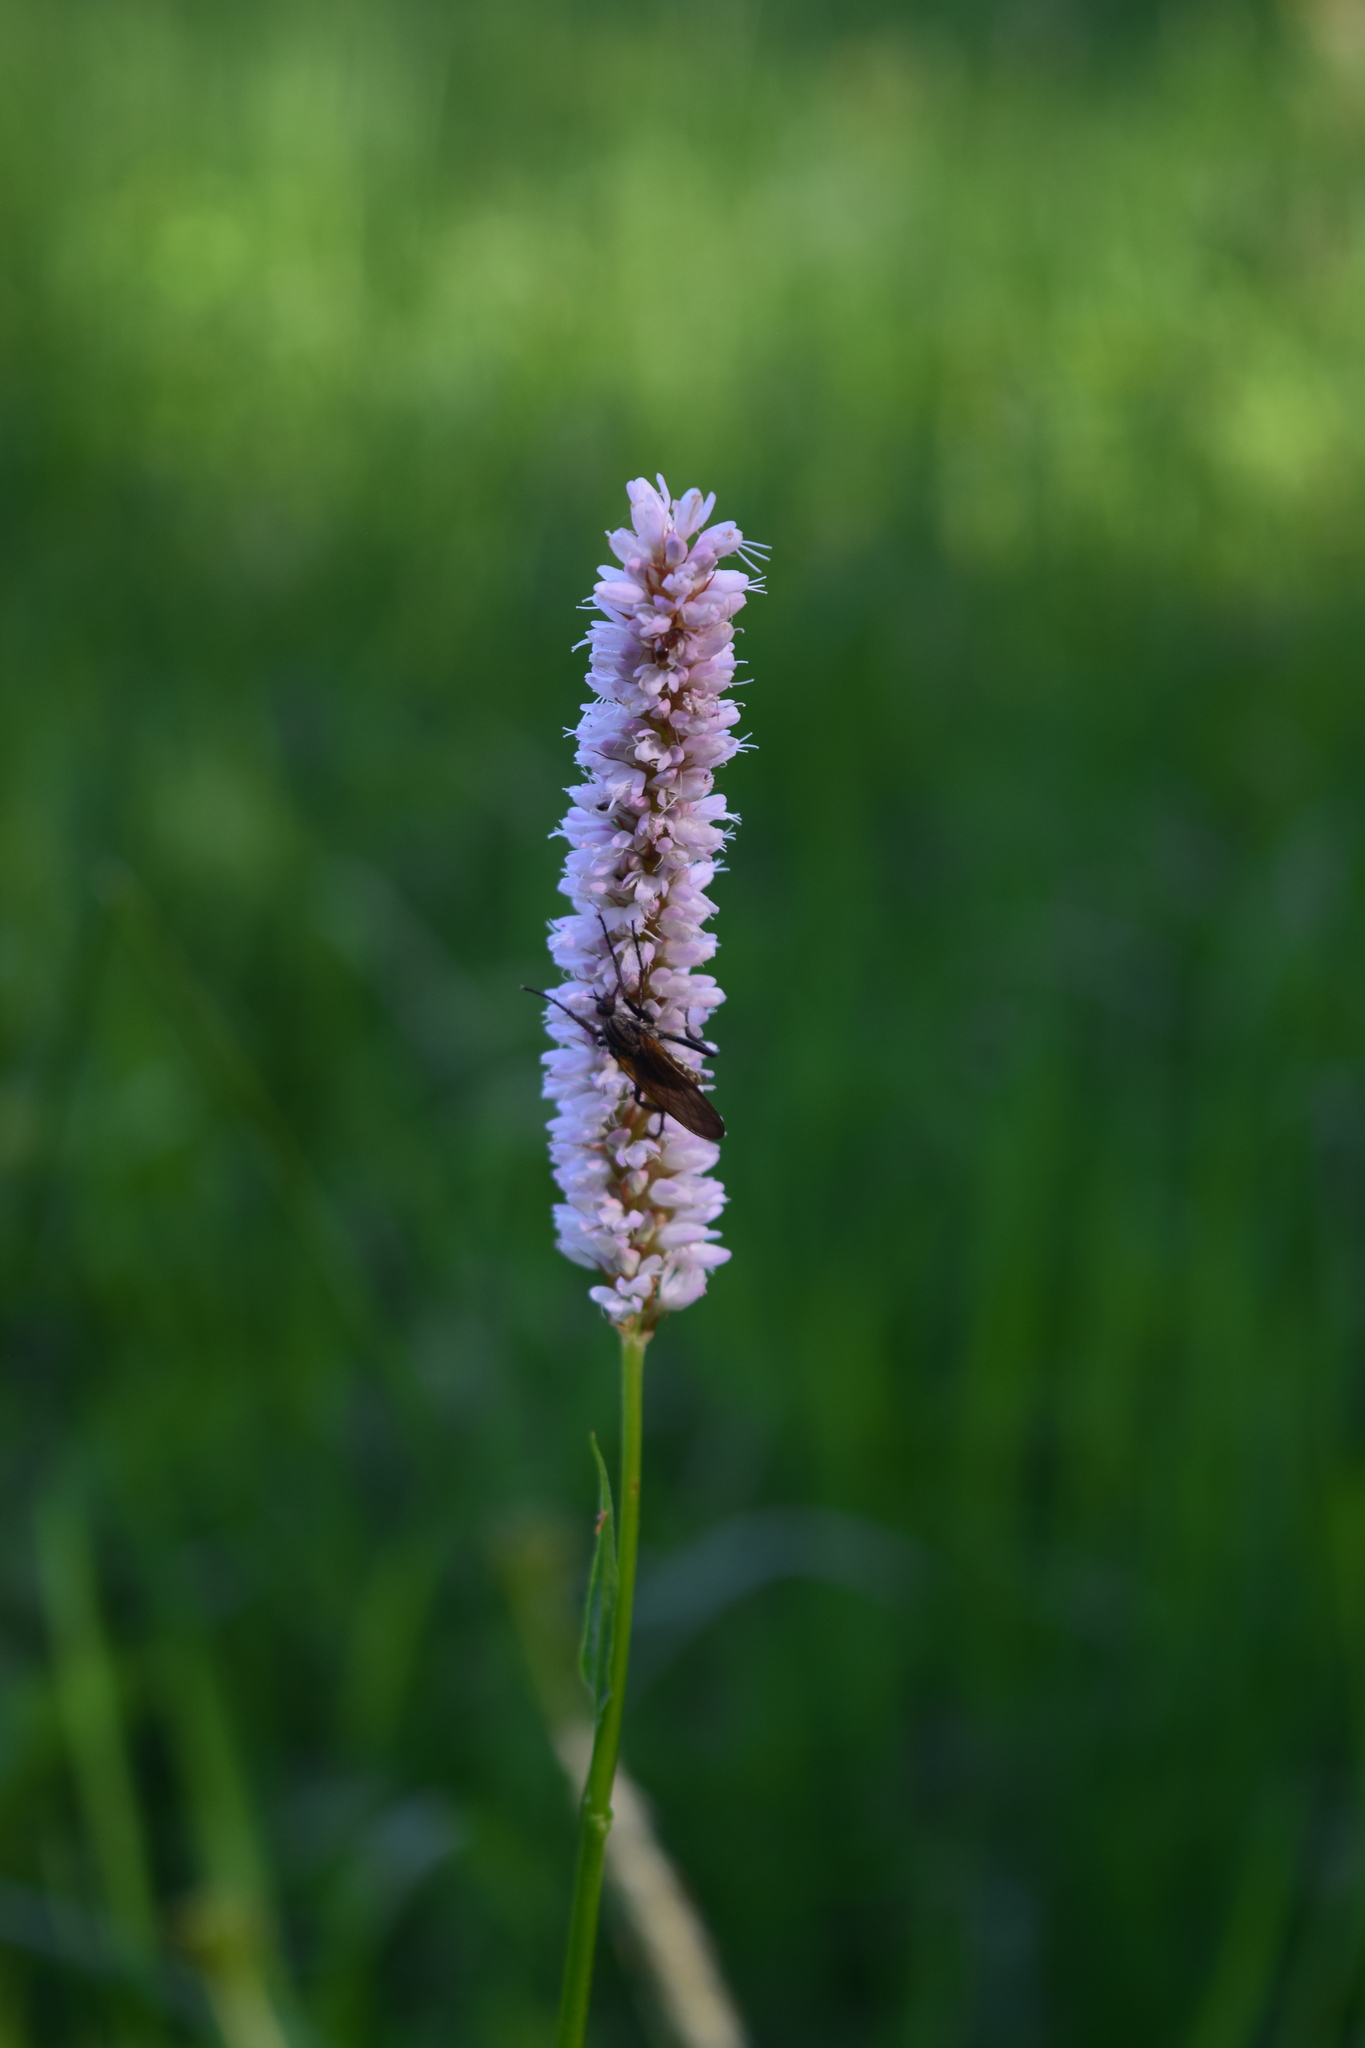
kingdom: Plantae
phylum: Tracheophyta
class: Magnoliopsida
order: Caryophyllales
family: Polygonaceae
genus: Bistorta
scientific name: Bistorta officinalis
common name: Common bistort
